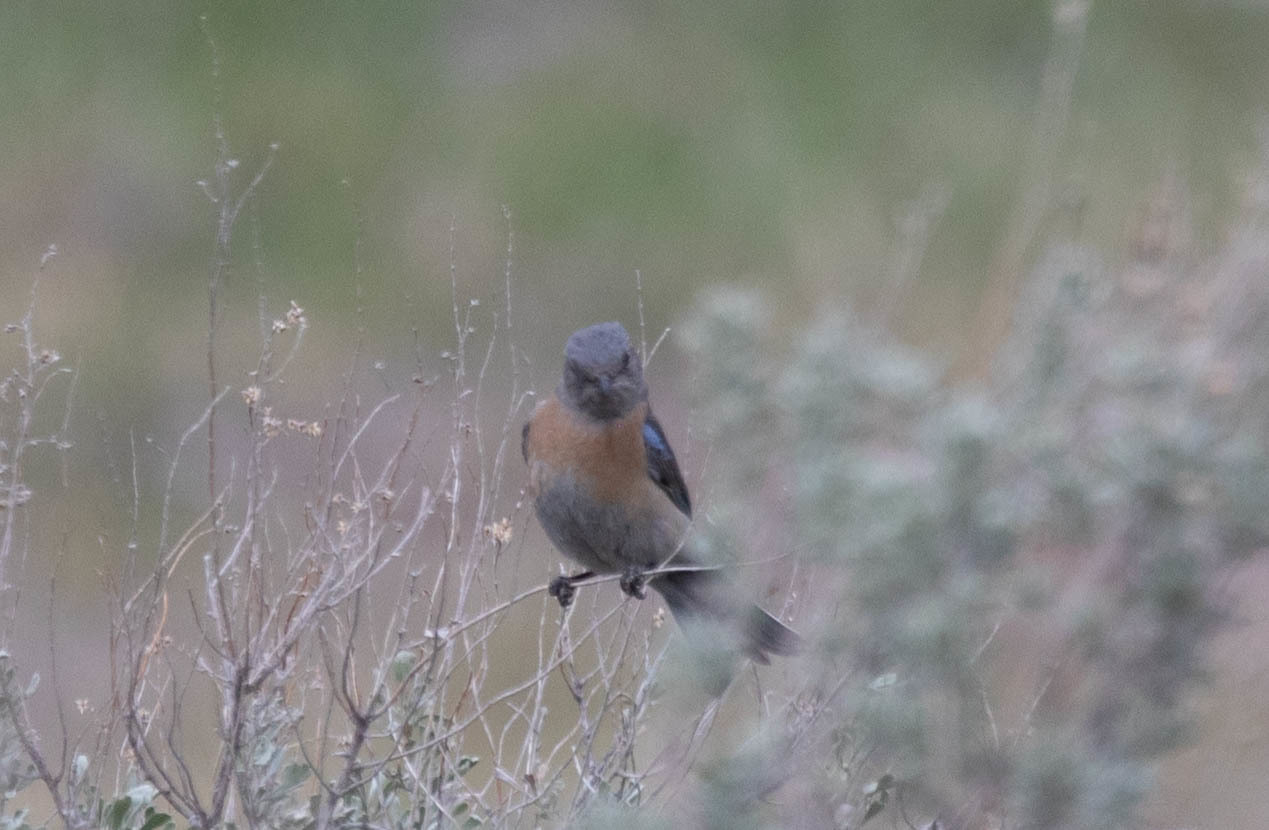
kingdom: Animalia
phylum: Chordata
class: Aves
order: Passeriformes
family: Turdidae
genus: Sialia
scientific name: Sialia mexicana
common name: Western bluebird
